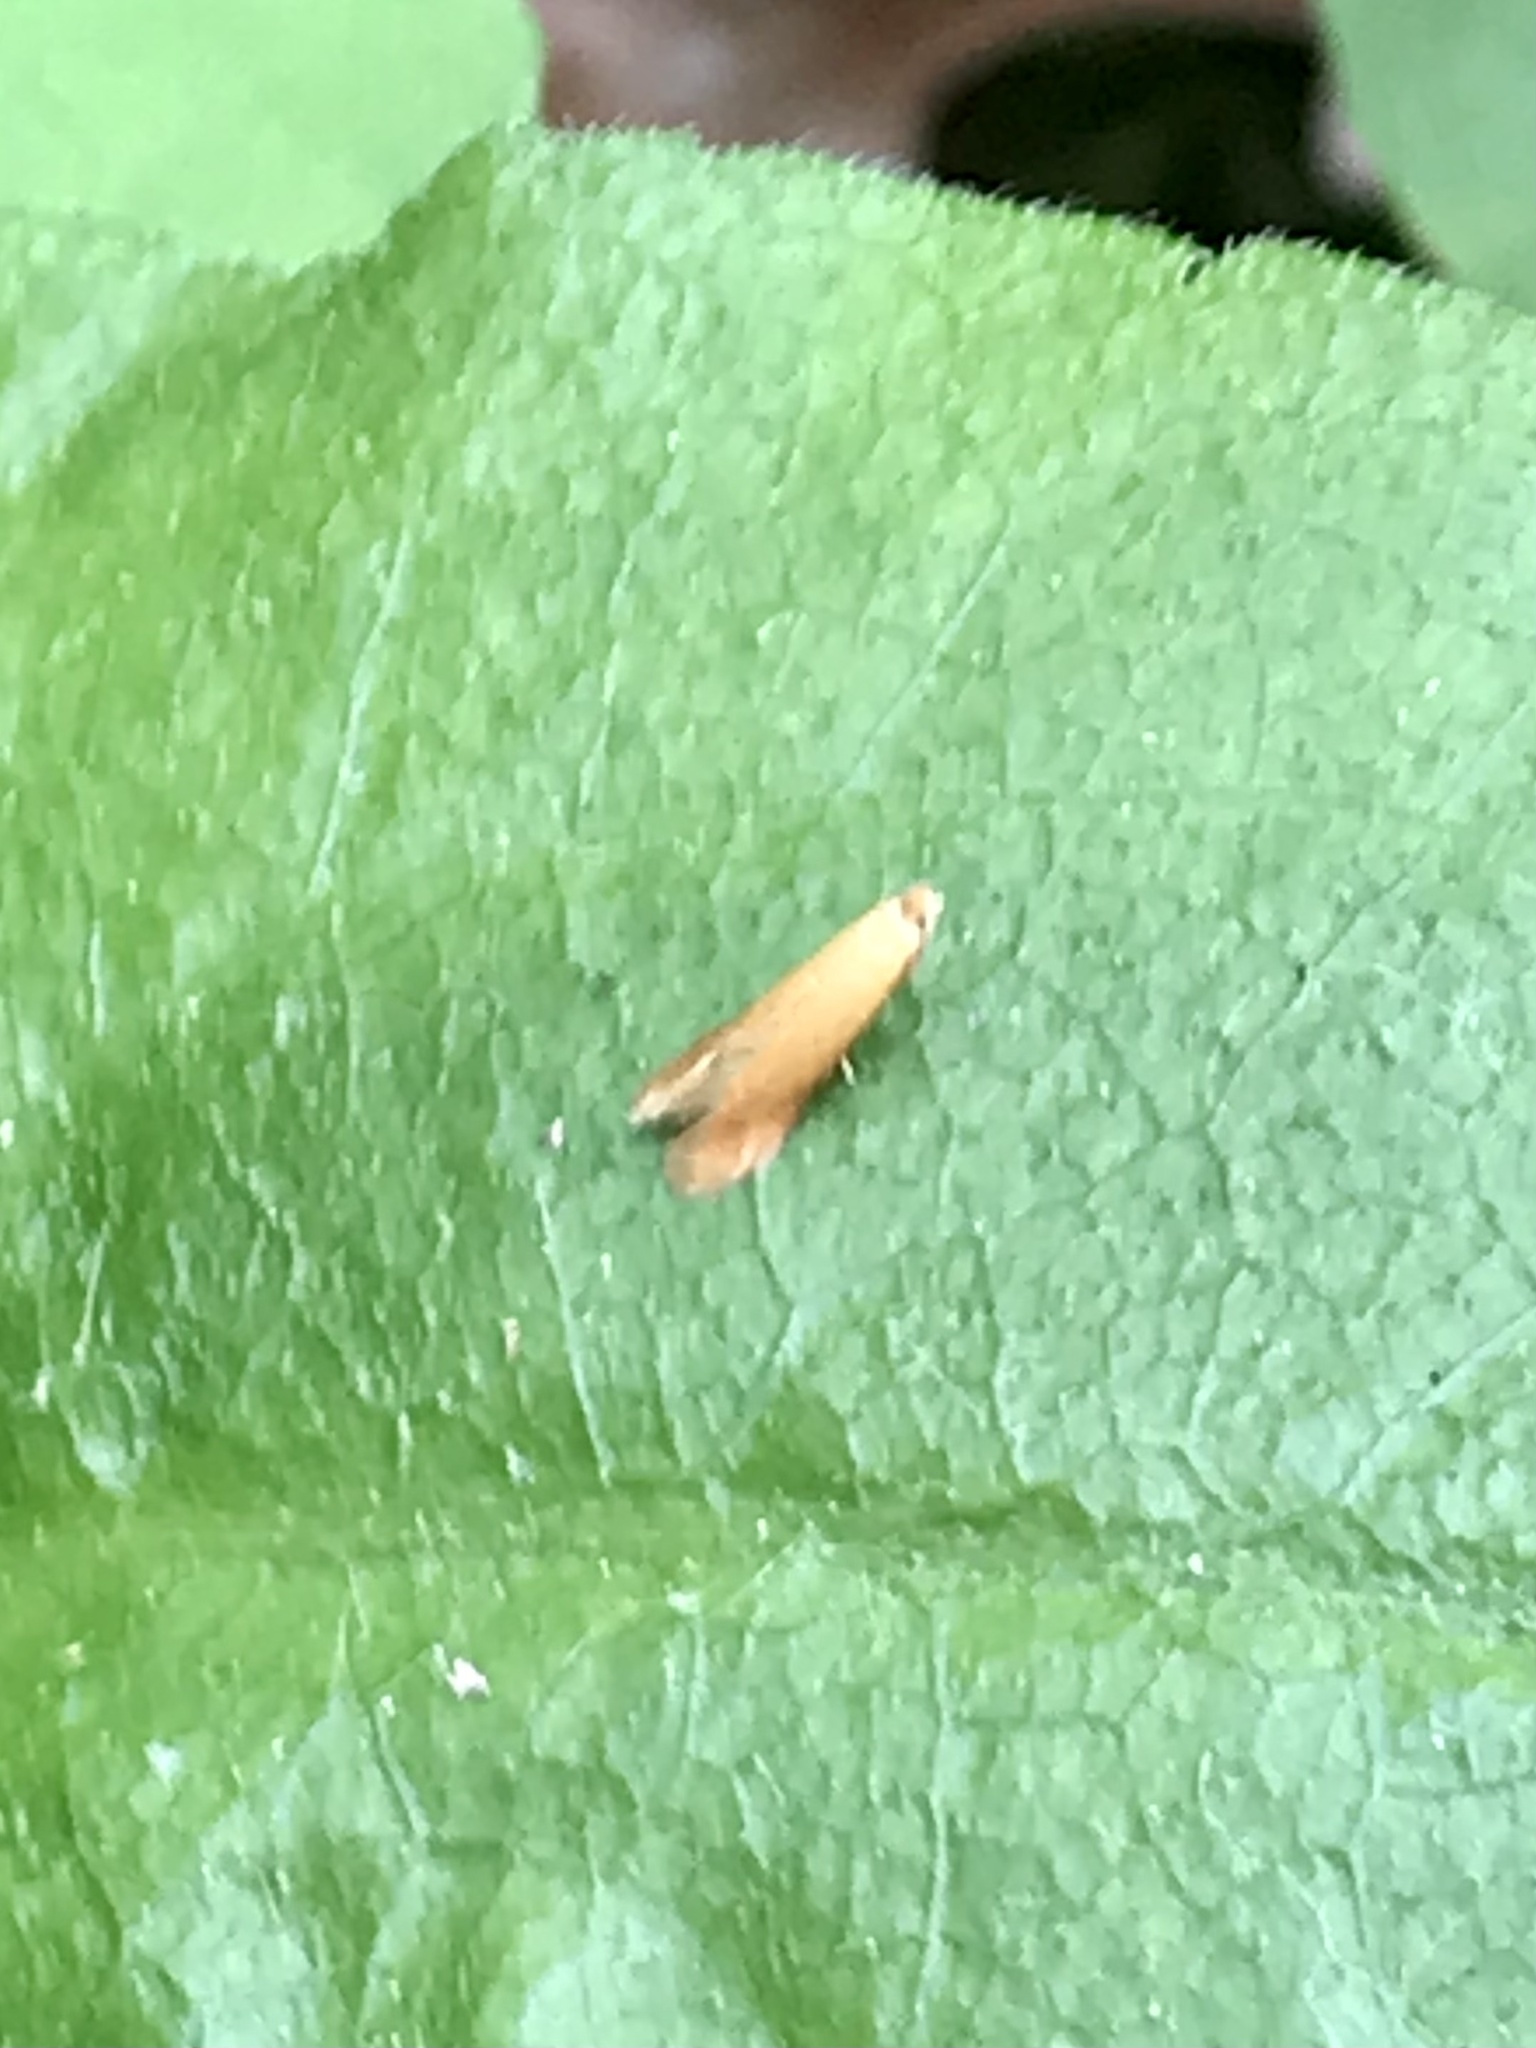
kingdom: Animalia
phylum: Arthropoda
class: Insecta
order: Lepidoptera
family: Tischeriidae
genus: Coptotriche
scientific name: Coptotriche zelleriella
